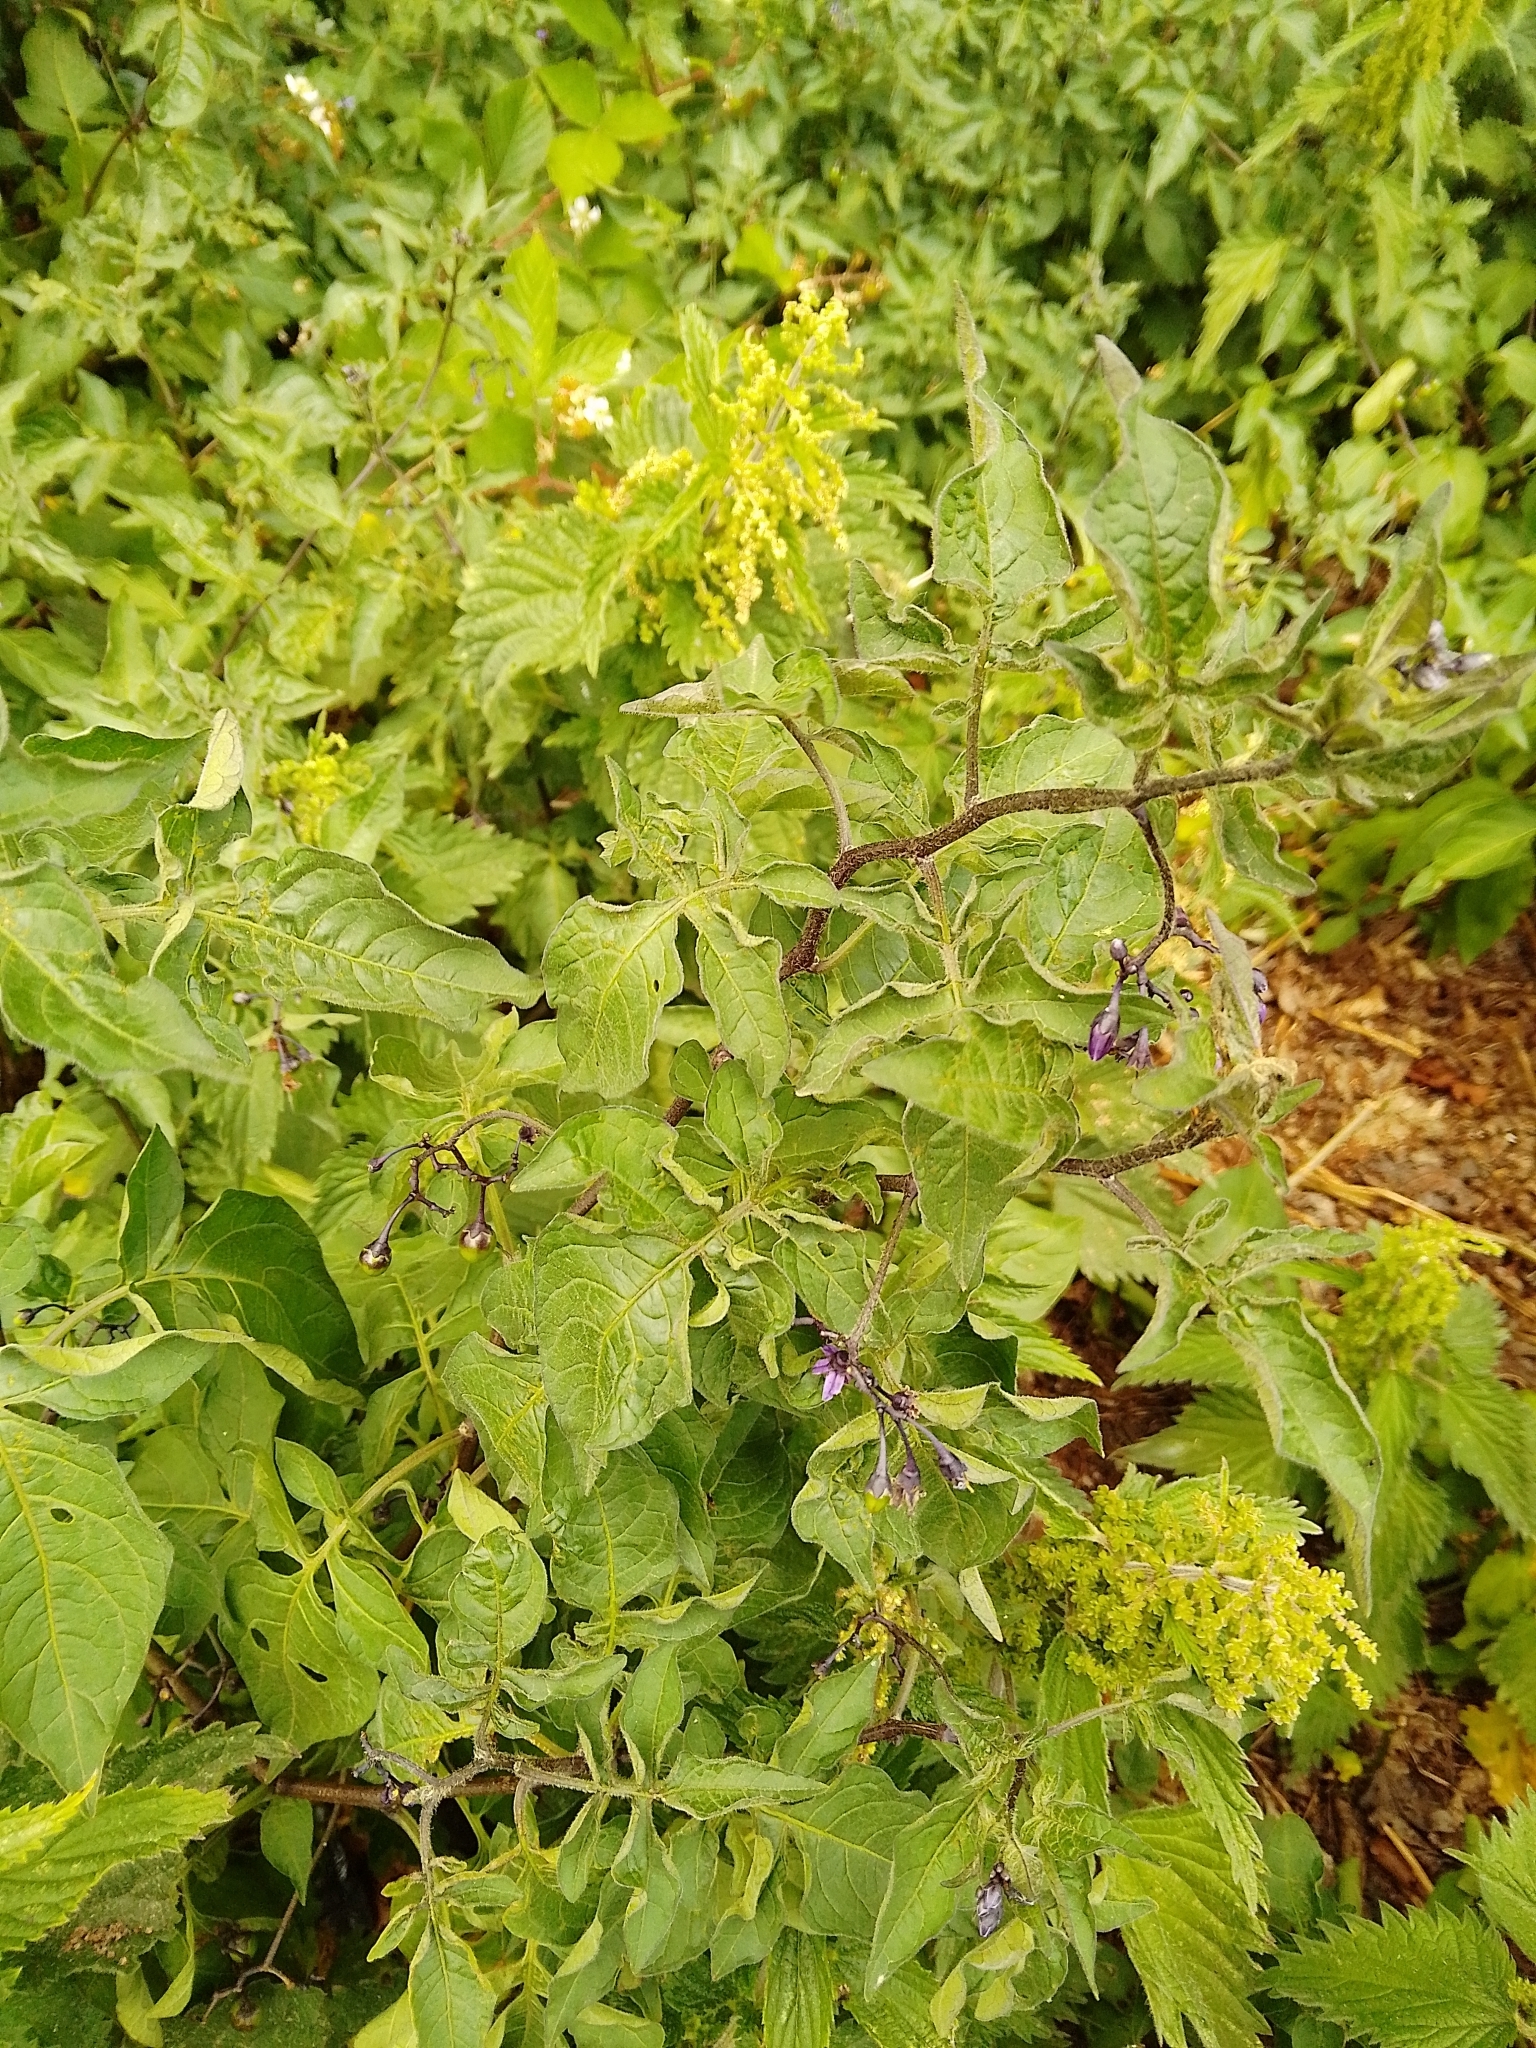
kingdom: Plantae
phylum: Tracheophyta
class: Magnoliopsida
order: Solanales
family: Solanaceae
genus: Solanum
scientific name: Solanum dulcamara
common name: Climbing nightshade
